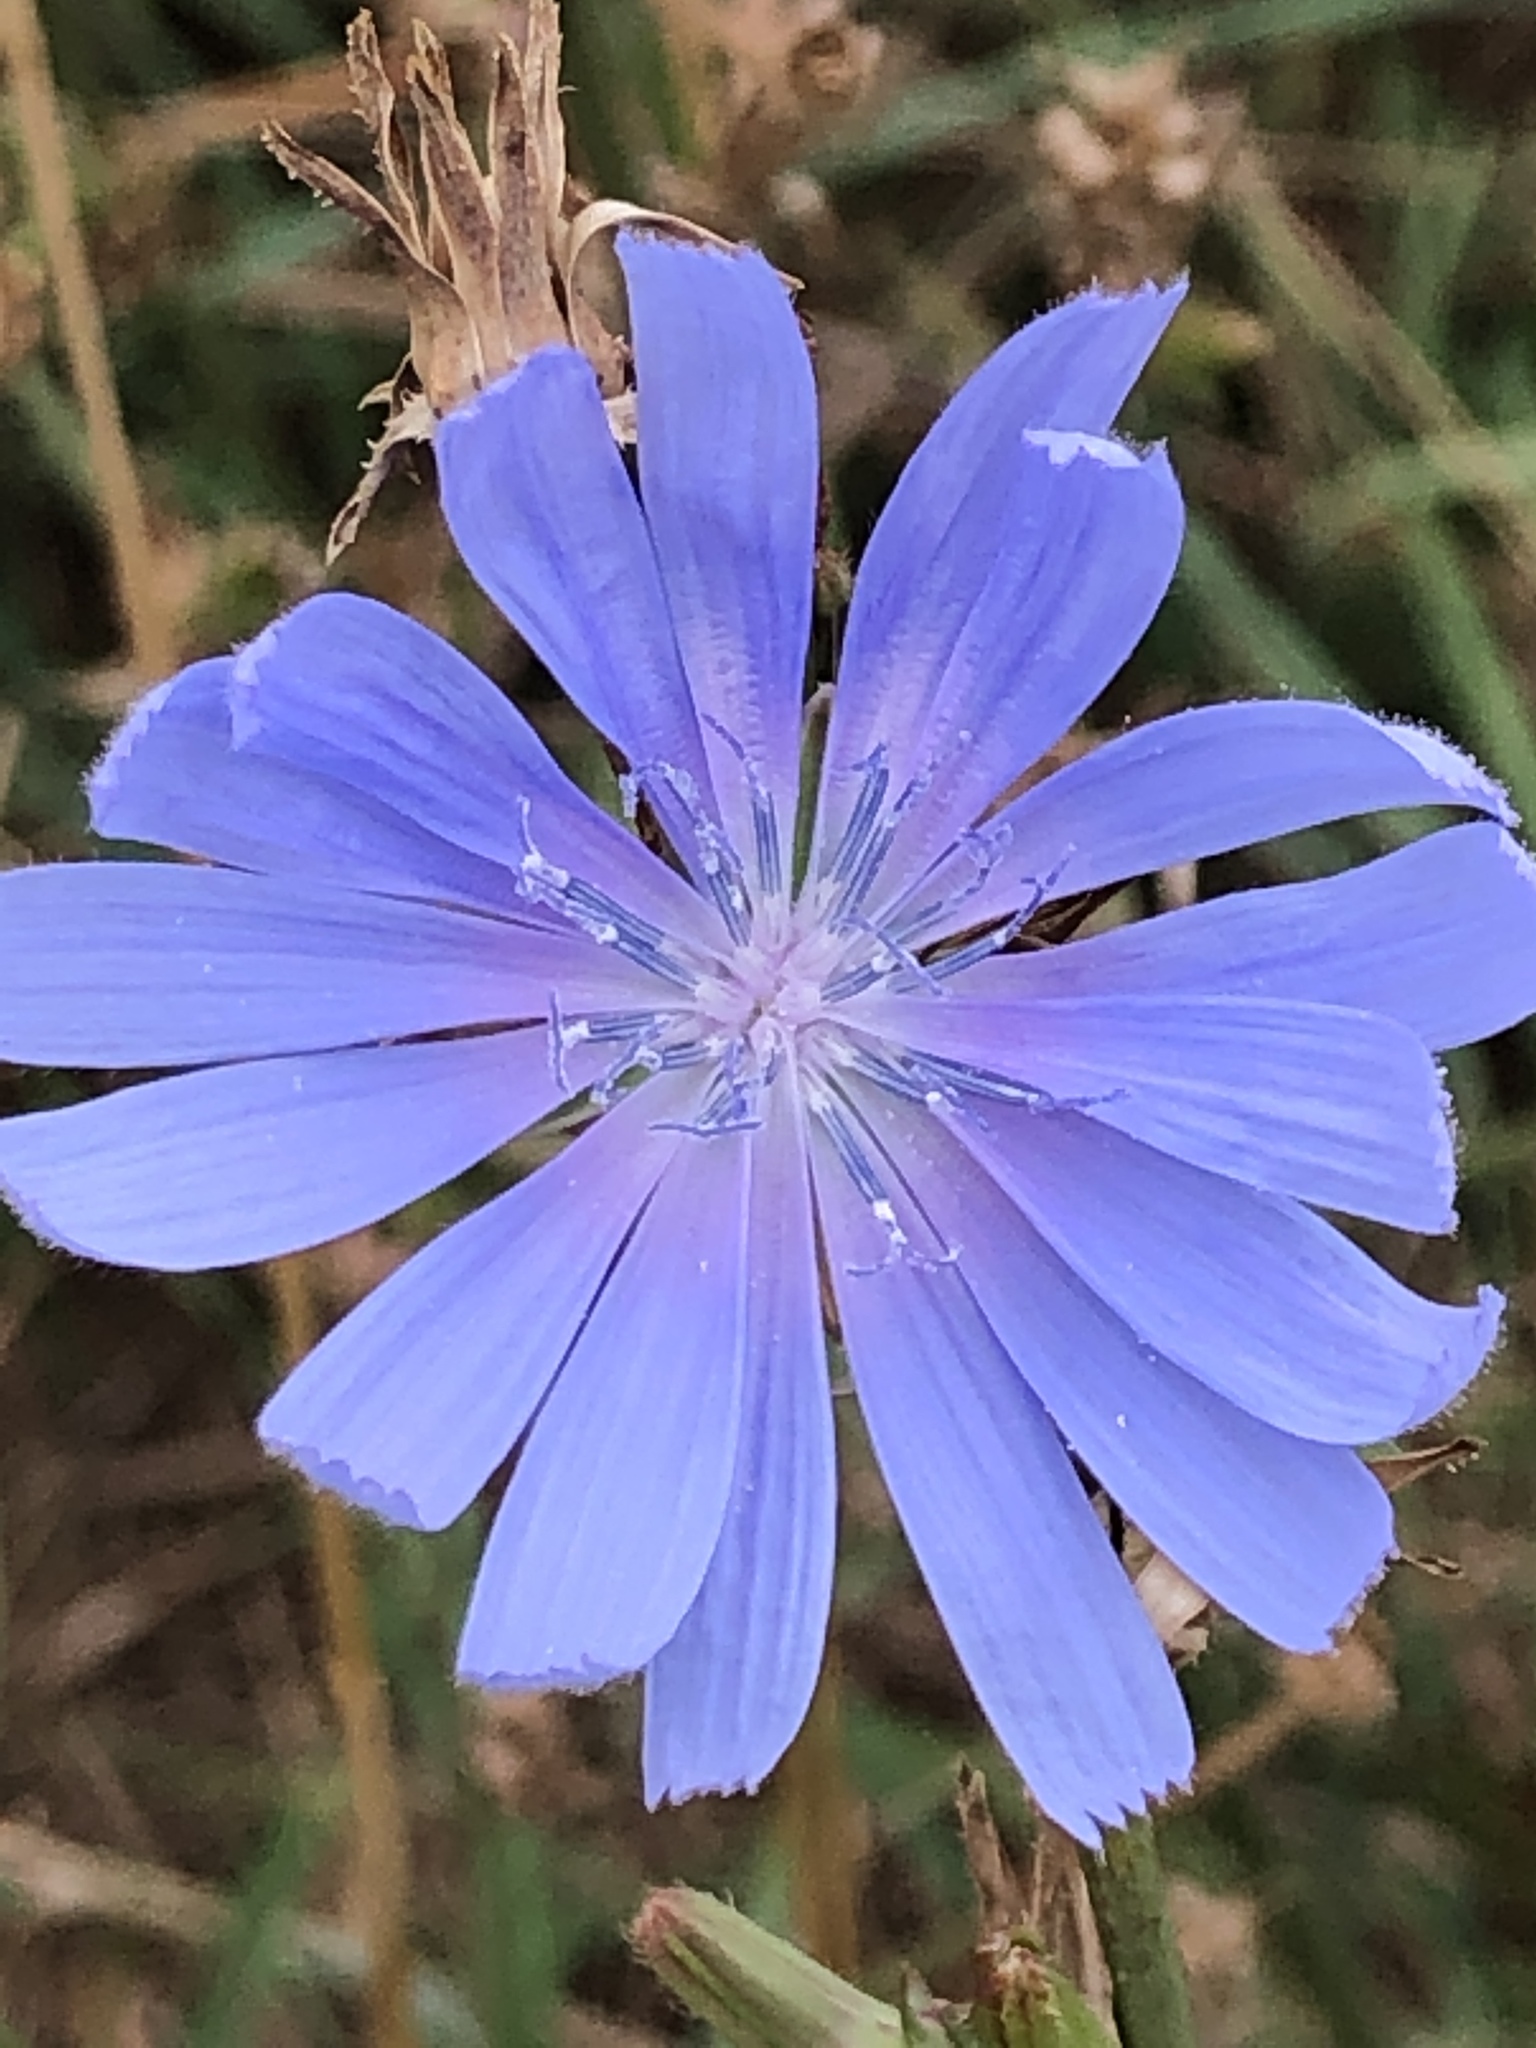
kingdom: Plantae
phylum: Tracheophyta
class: Magnoliopsida
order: Asterales
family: Asteraceae
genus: Cichorium
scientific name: Cichorium intybus
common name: Chicory
